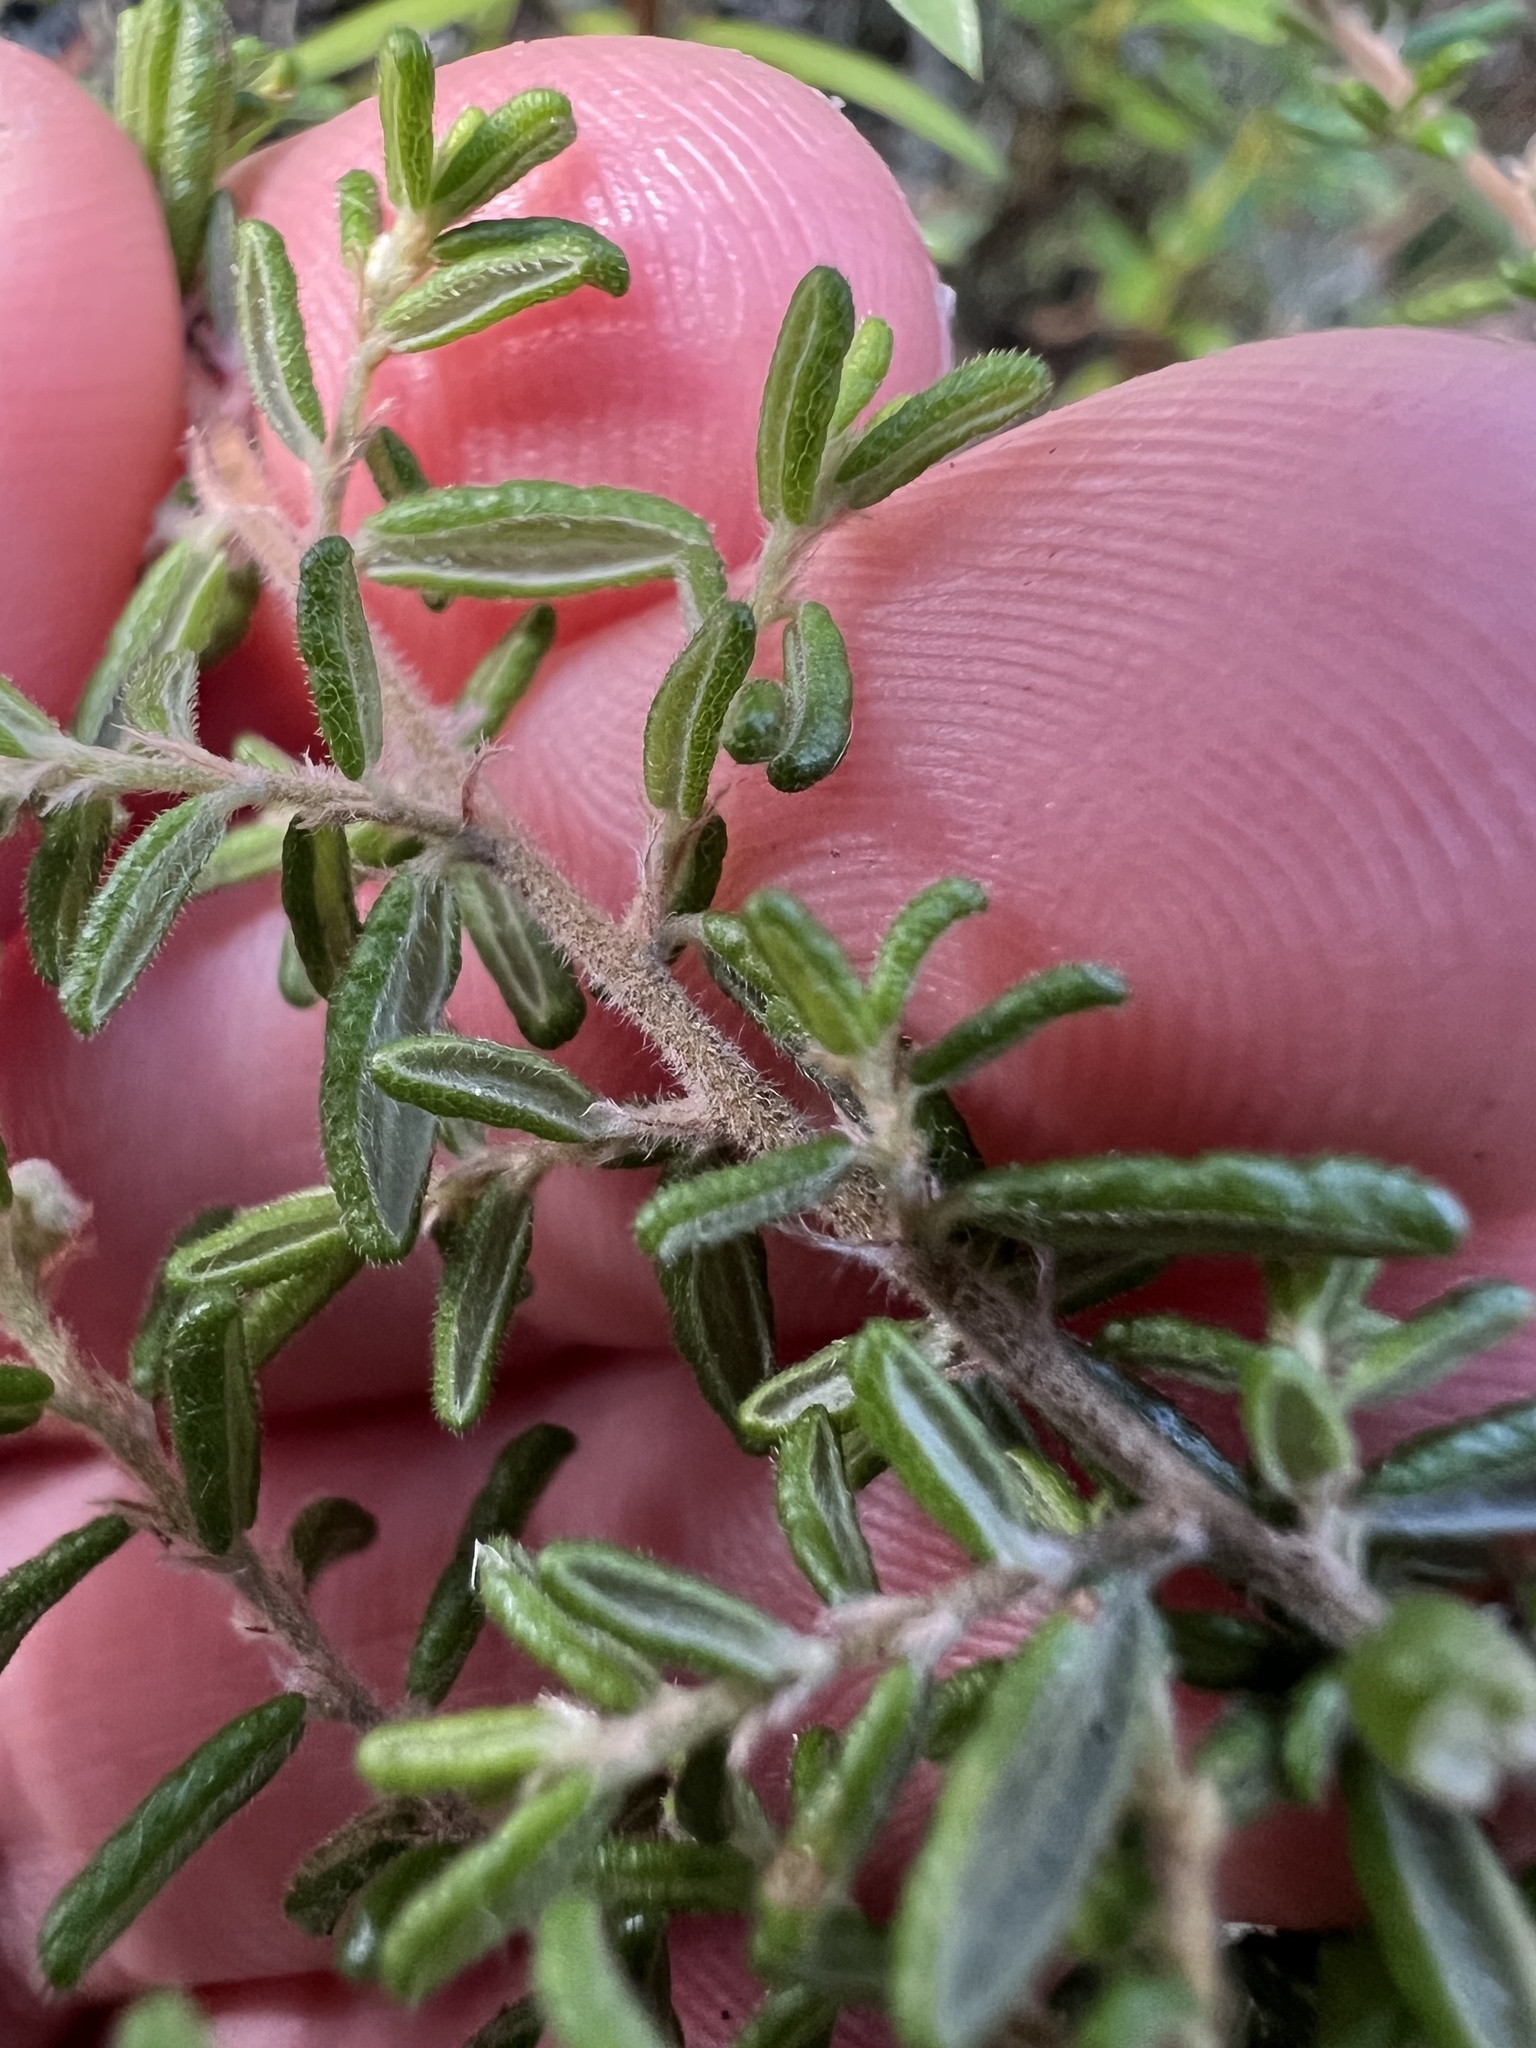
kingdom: Plantae
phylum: Tracheophyta
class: Magnoliopsida
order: Rosales
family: Rhamnaceae
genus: Pomaderris
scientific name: Pomaderris amoena
